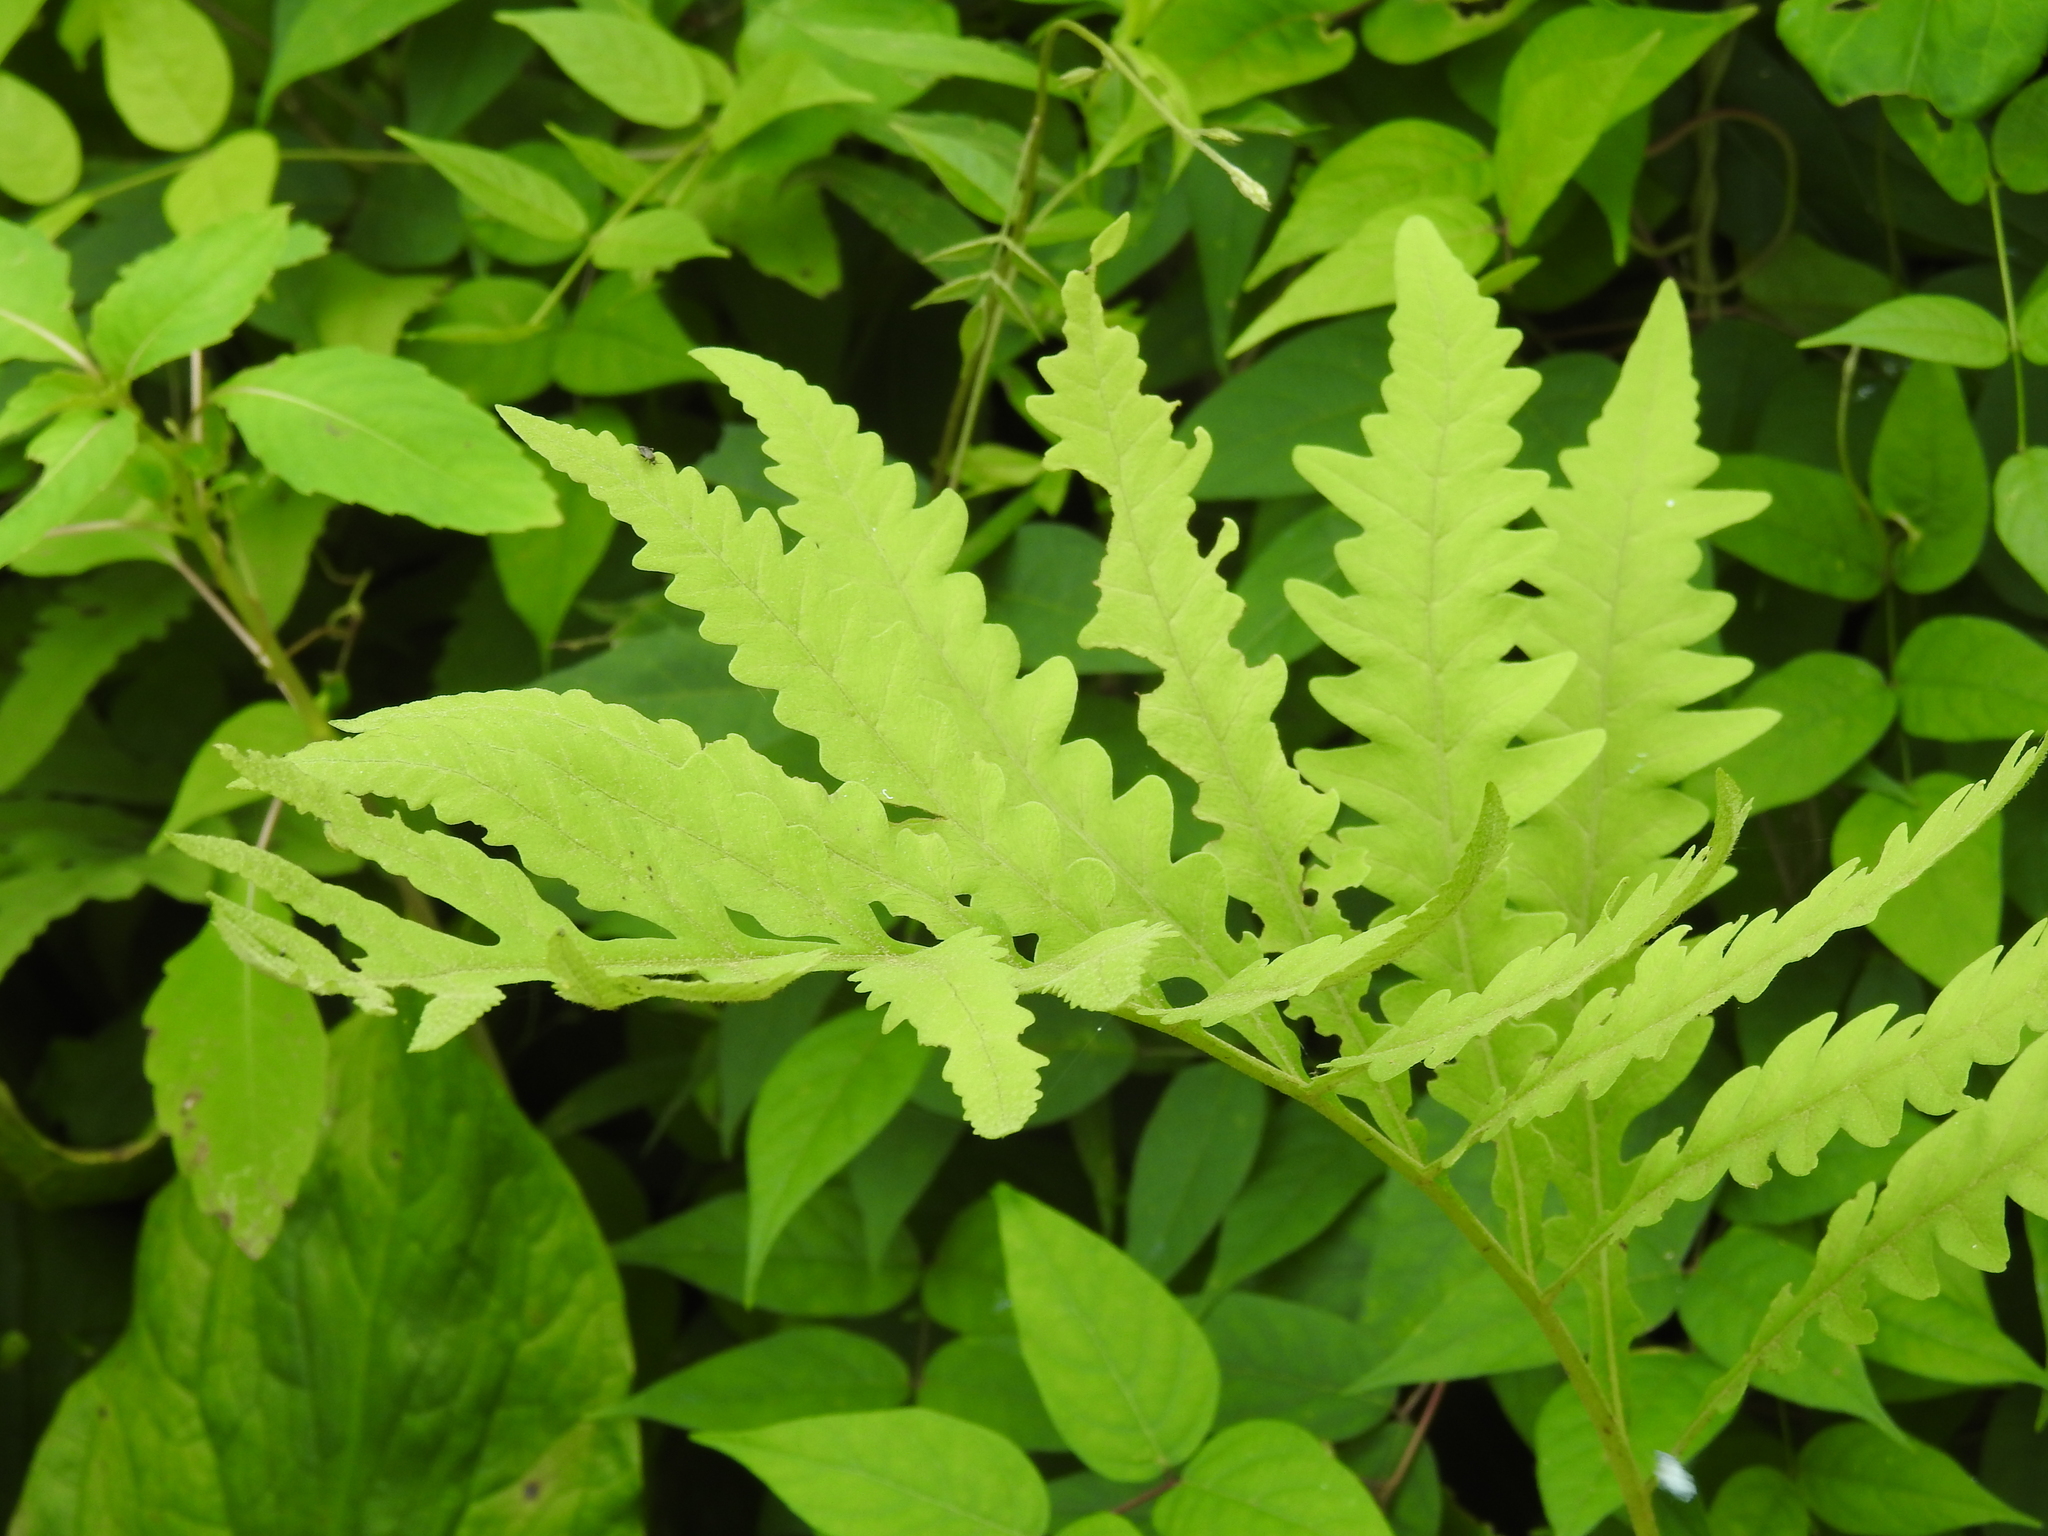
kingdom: Plantae
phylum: Tracheophyta
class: Polypodiopsida
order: Polypodiales
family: Onocleaceae
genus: Onoclea
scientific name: Onoclea sensibilis
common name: Sensitive fern
